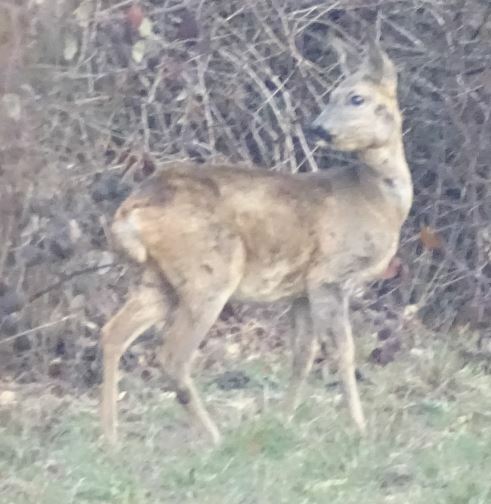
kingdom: Animalia
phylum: Chordata
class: Mammalia
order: Artiodactyla
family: Cervidae
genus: Capreolus
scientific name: Capreolus capreolus
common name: Western roe deer
